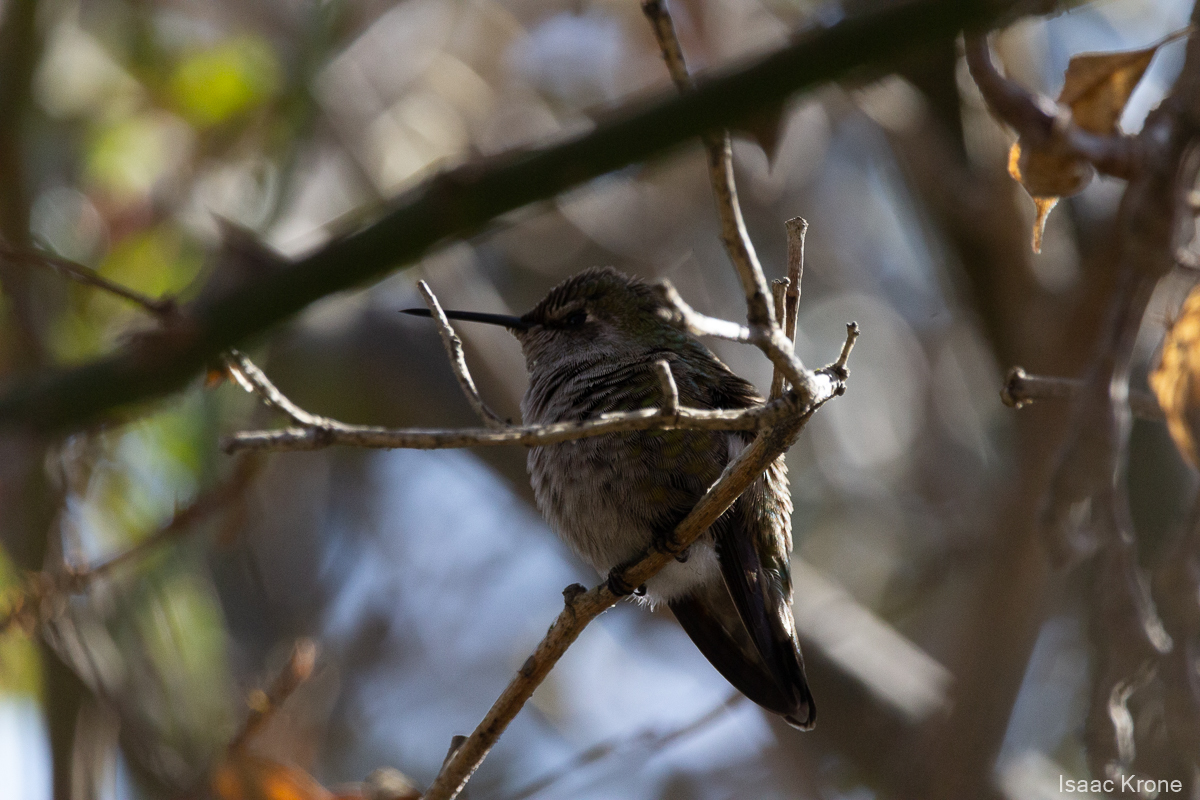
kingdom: Animalia
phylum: Chordata
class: Aves
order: Apodiformes
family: Trochilidae
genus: Calypte
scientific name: Calypte anna
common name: Anna's hummingbird
